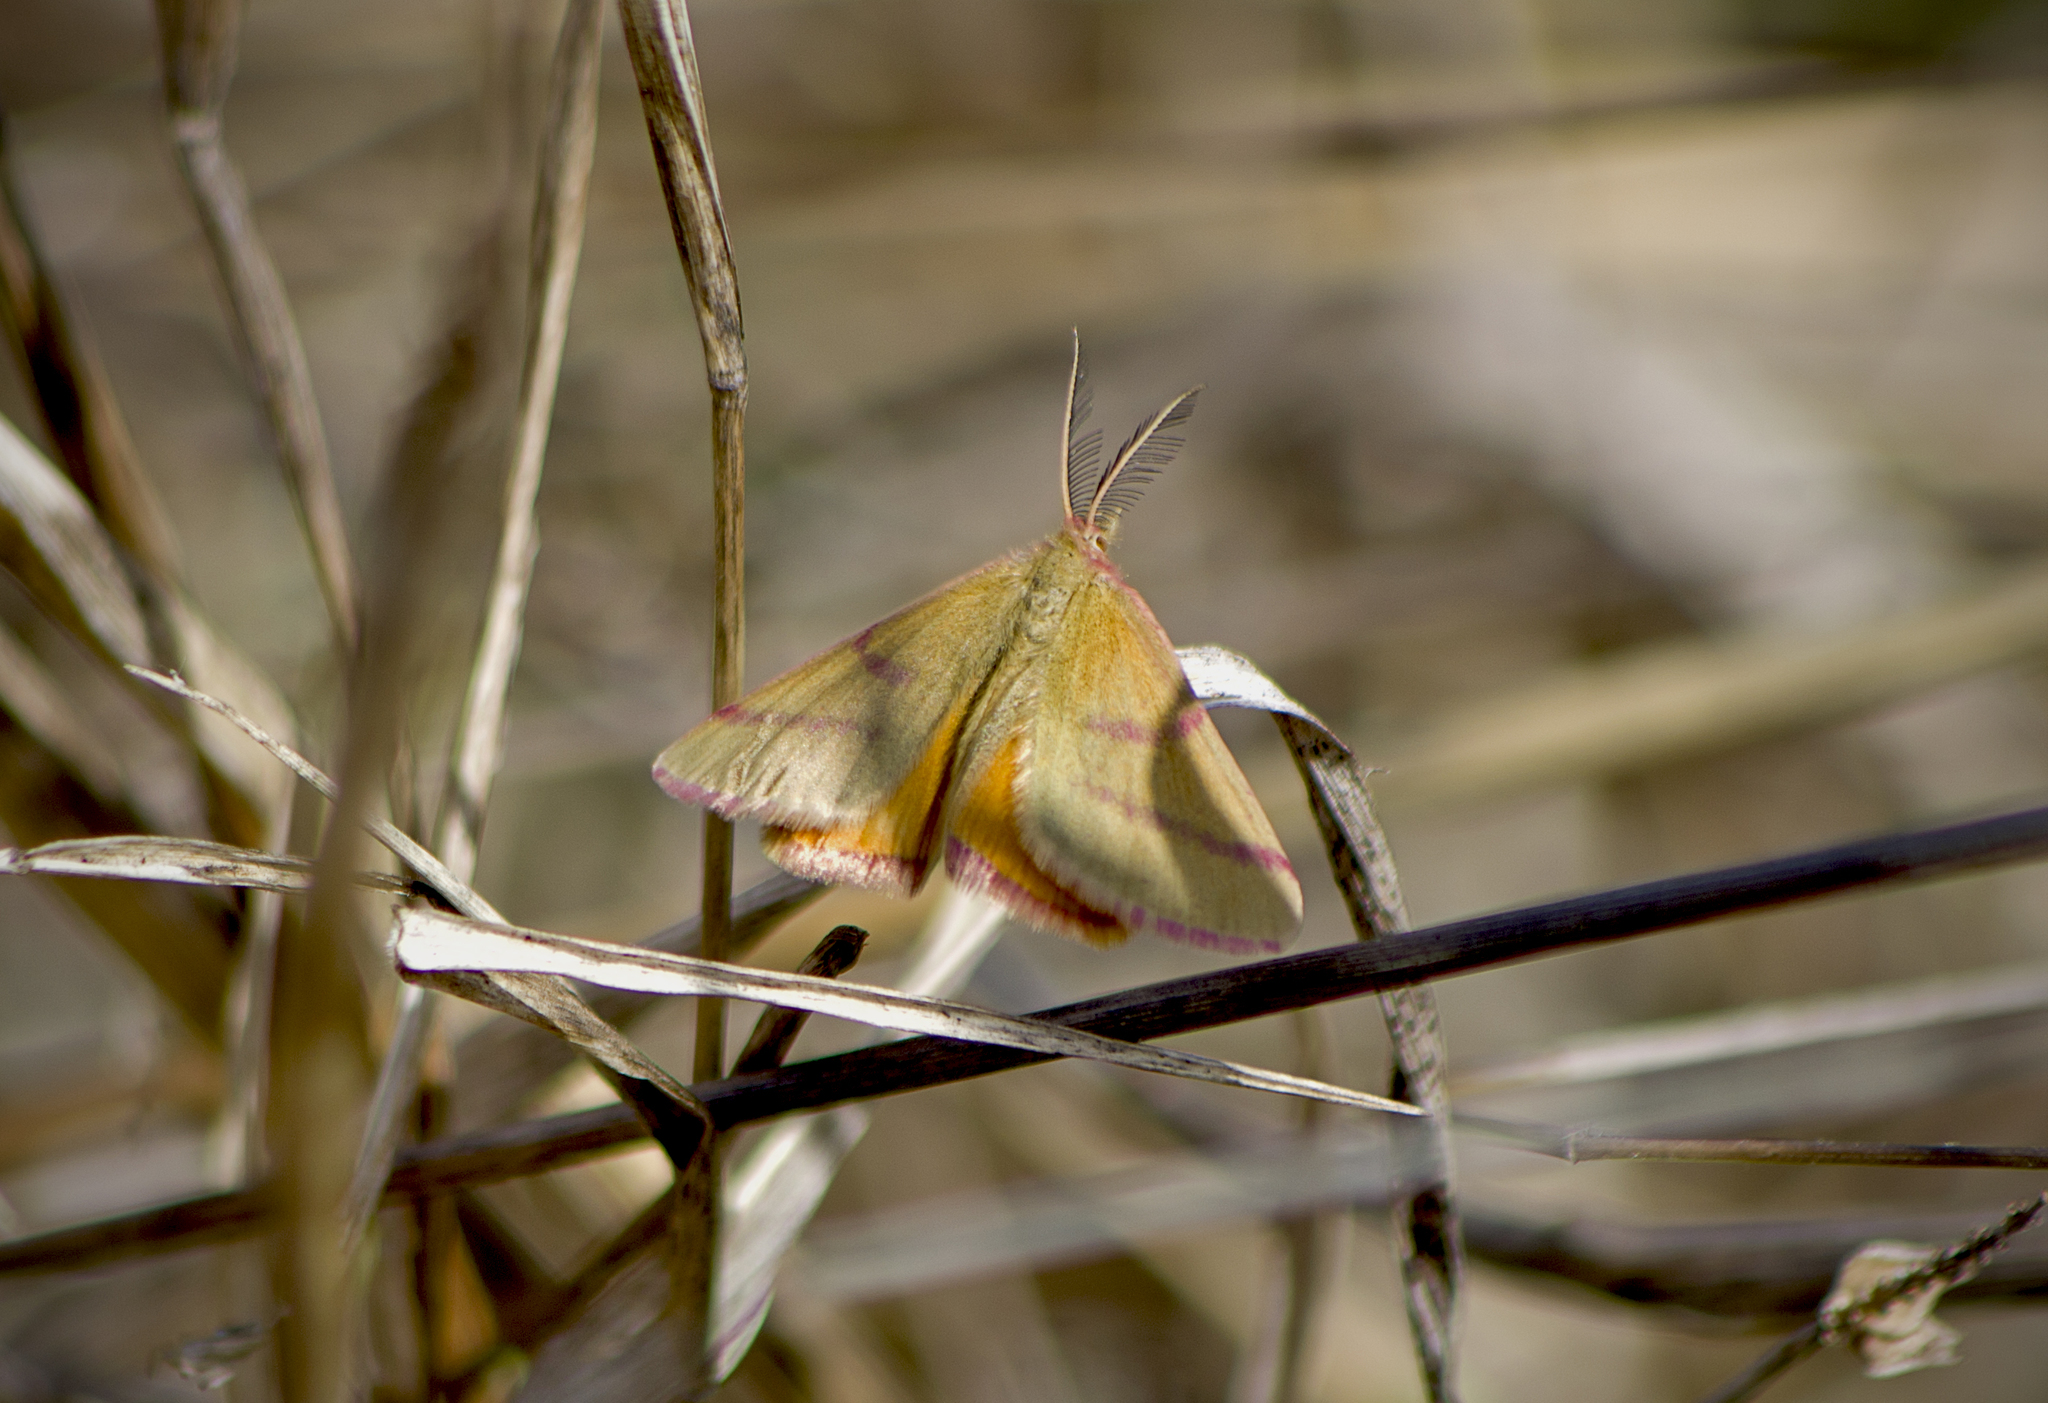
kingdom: Animalia
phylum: Arthropoda
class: Insecta
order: Lepidoptera
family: Geometridae
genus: Lythria
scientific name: Lythria purpuraria
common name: Purple-barred yellow
